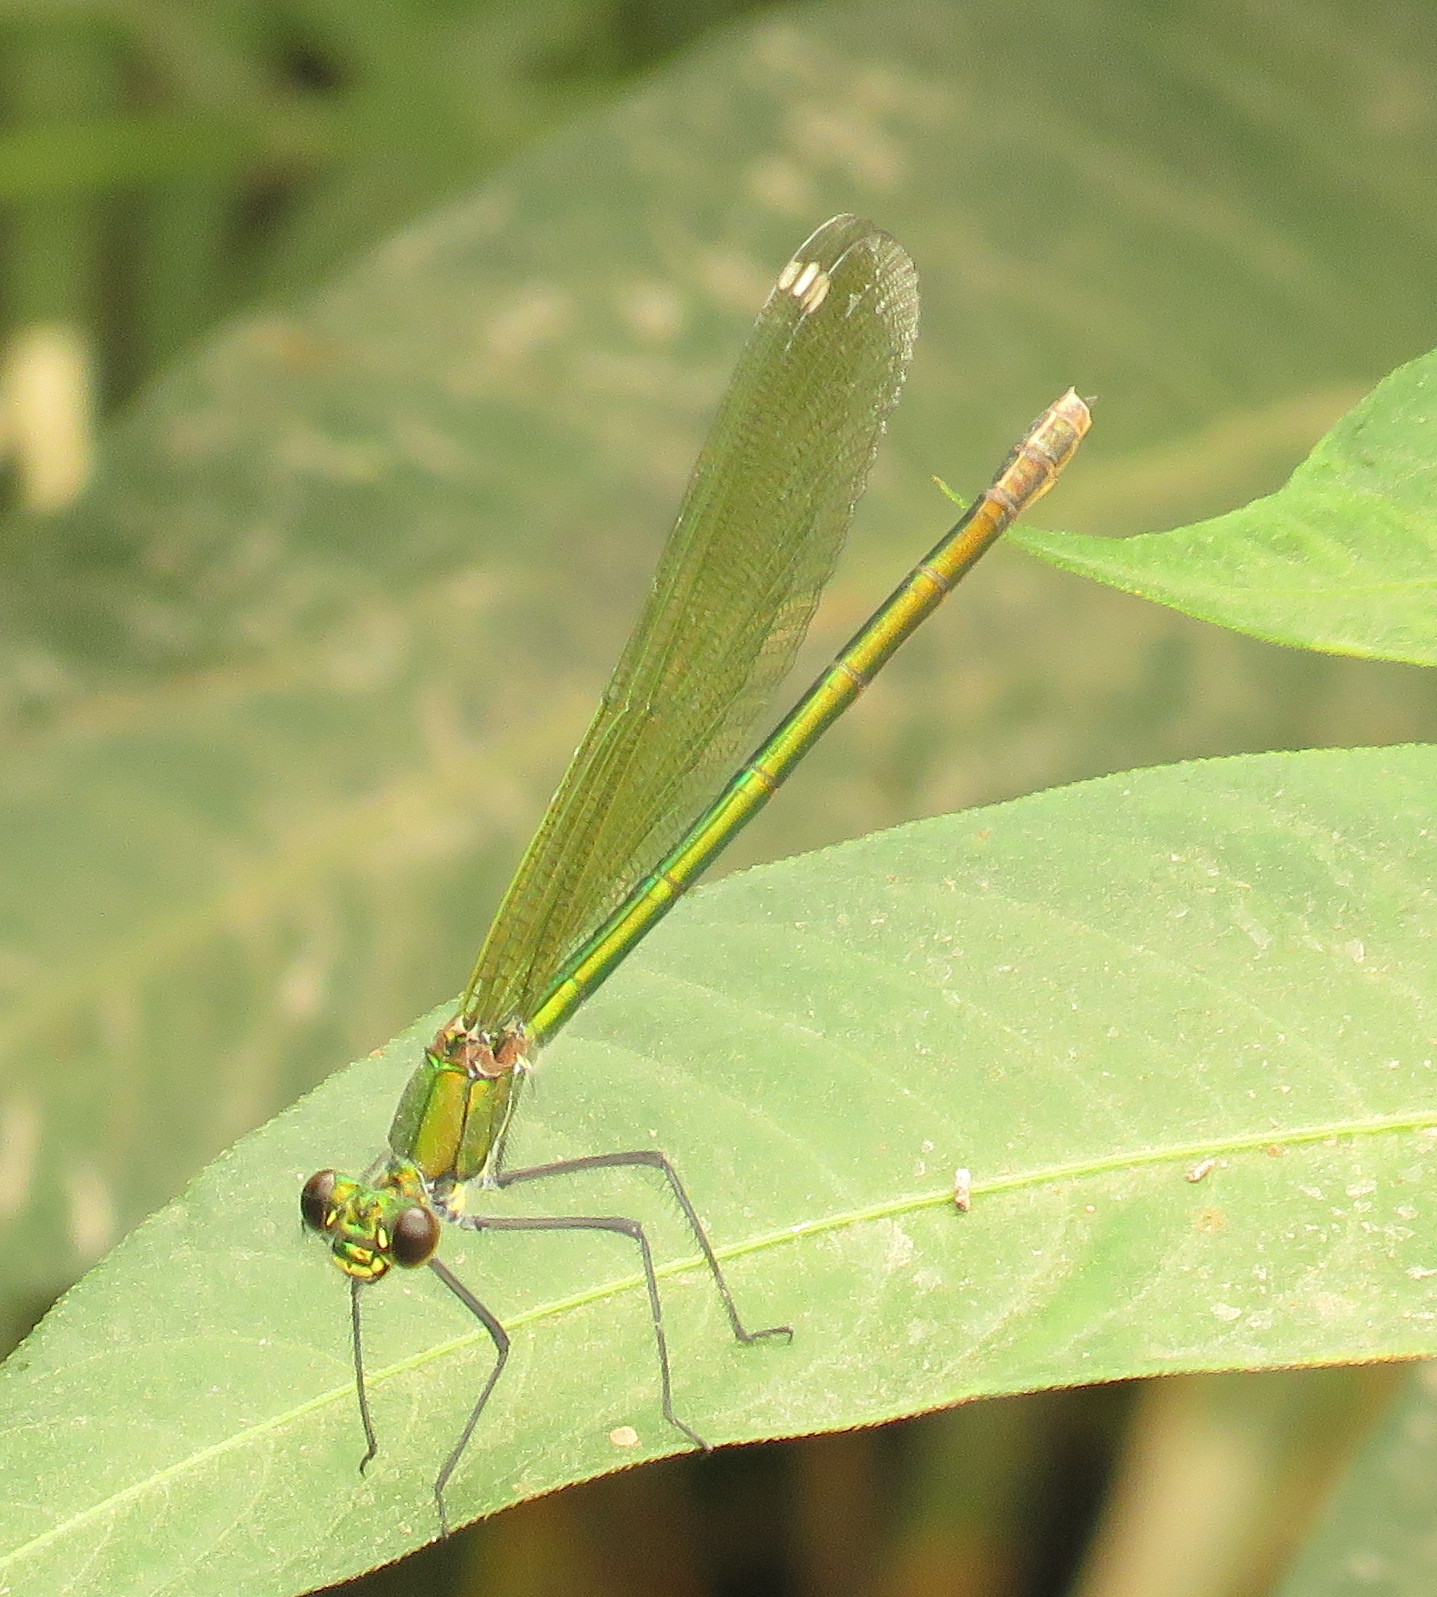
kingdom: Animalia
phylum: Arthropoda
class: Insecta
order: Odonata
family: Calopterygidae
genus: Calopteryx
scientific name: Calopteryx splendens
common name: Banded demoiselle
